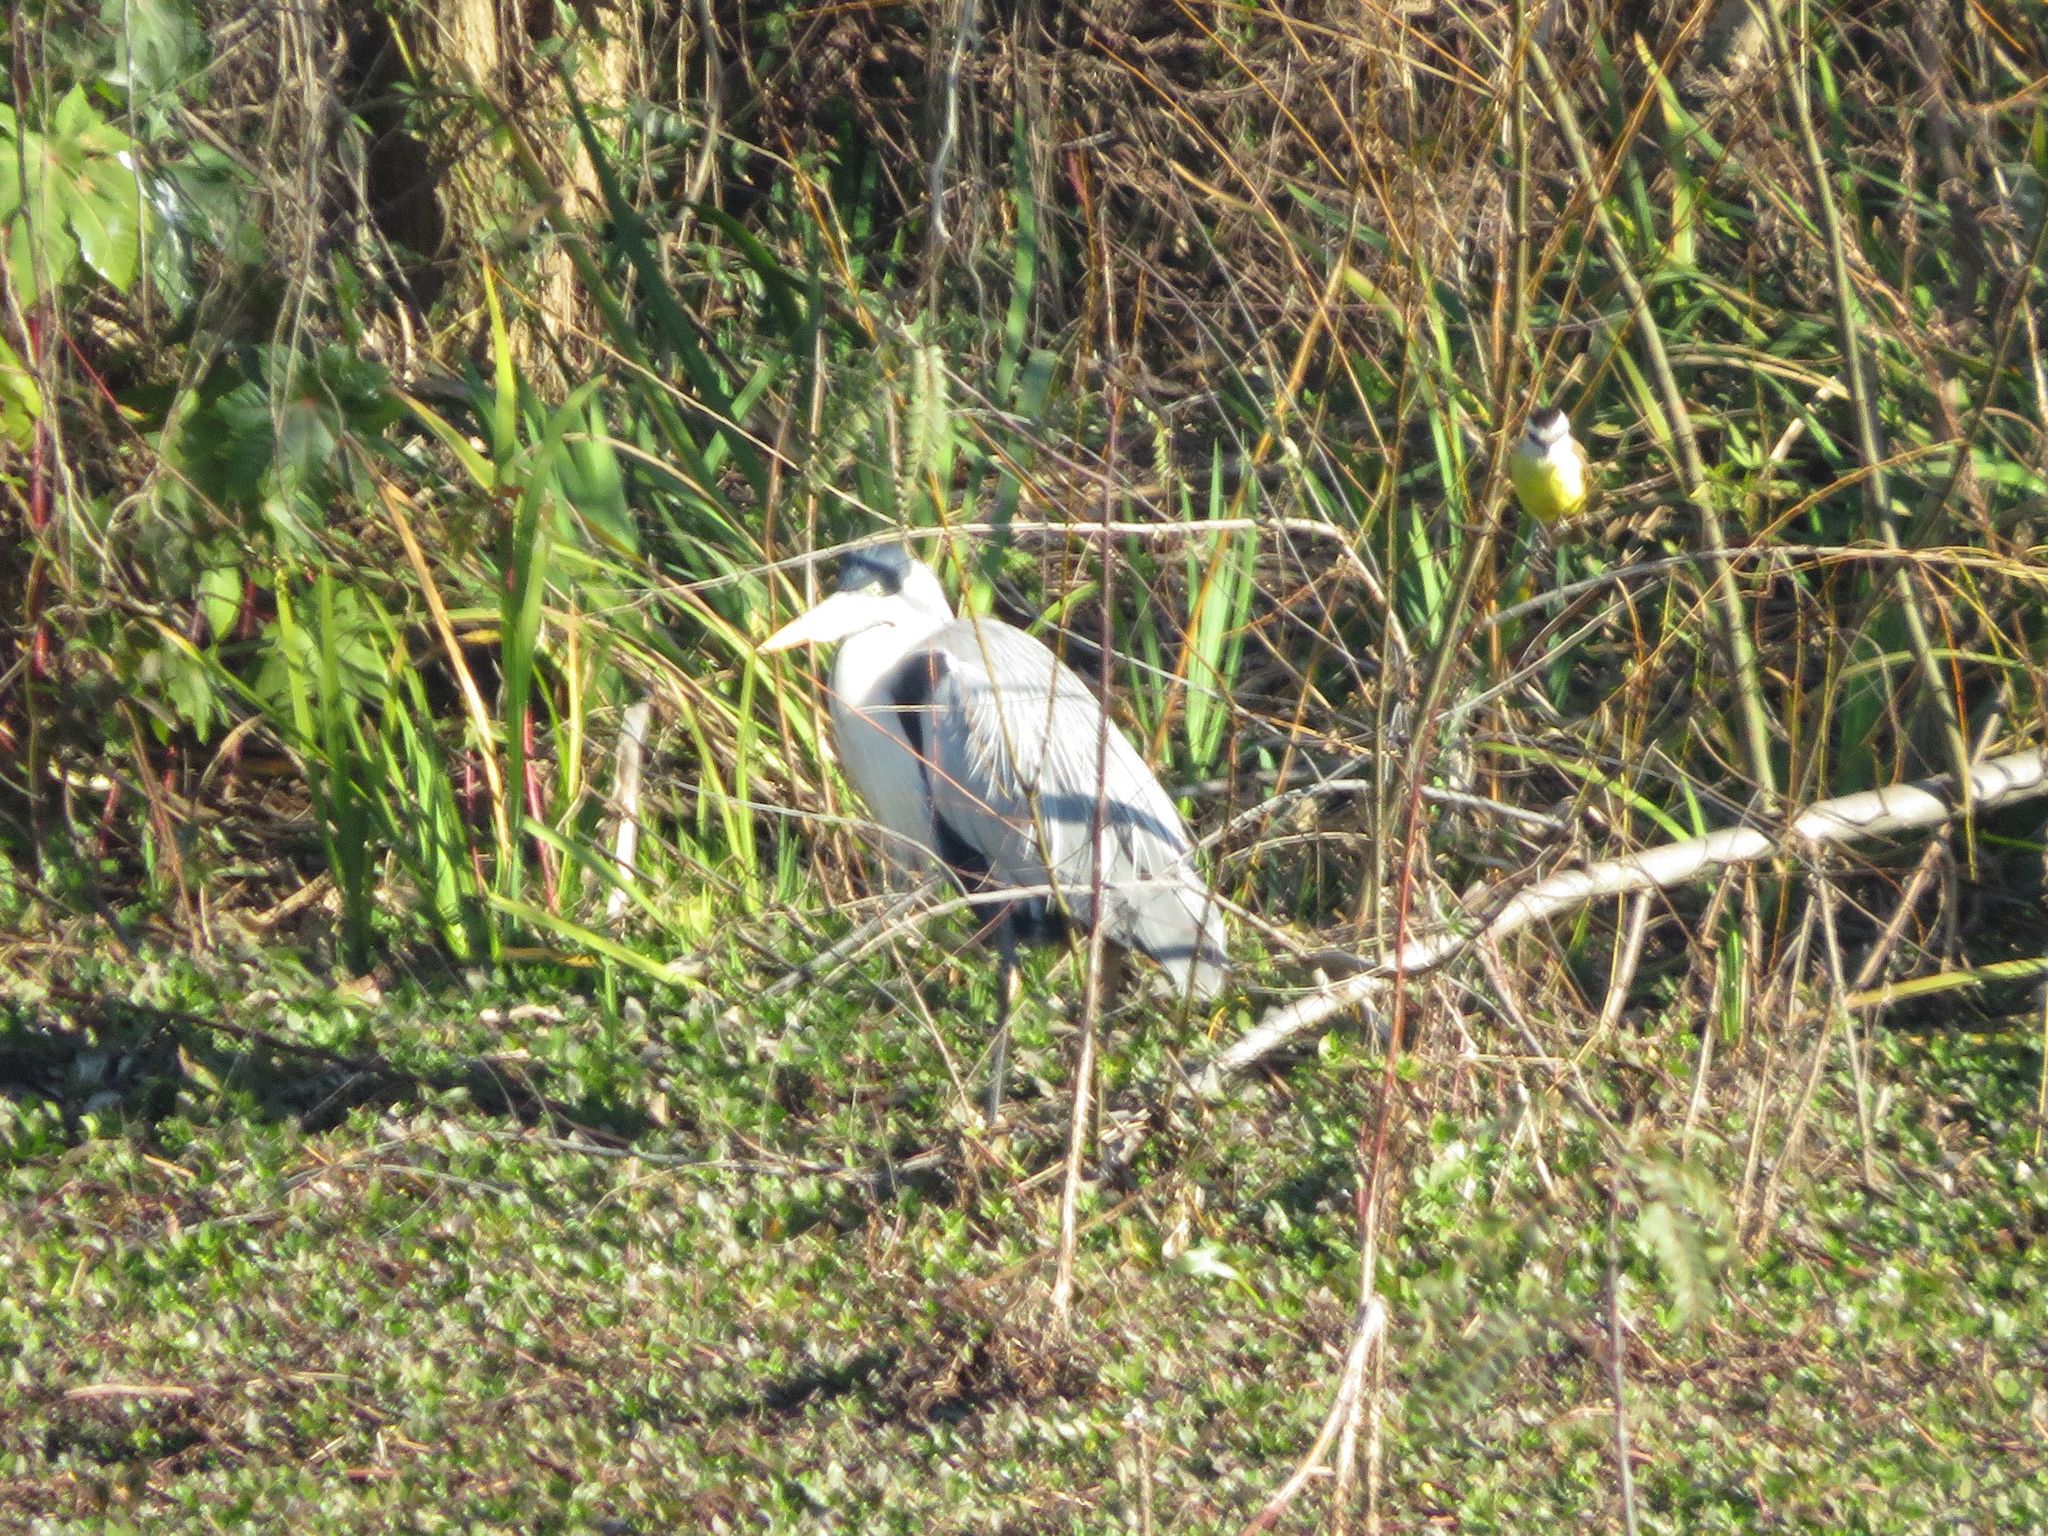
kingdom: Animalia
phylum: Chordata
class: Aves
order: Pelecaniformes
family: Ardeidae
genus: Ardea
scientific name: Ardea cocoi
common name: Cocoi heron
